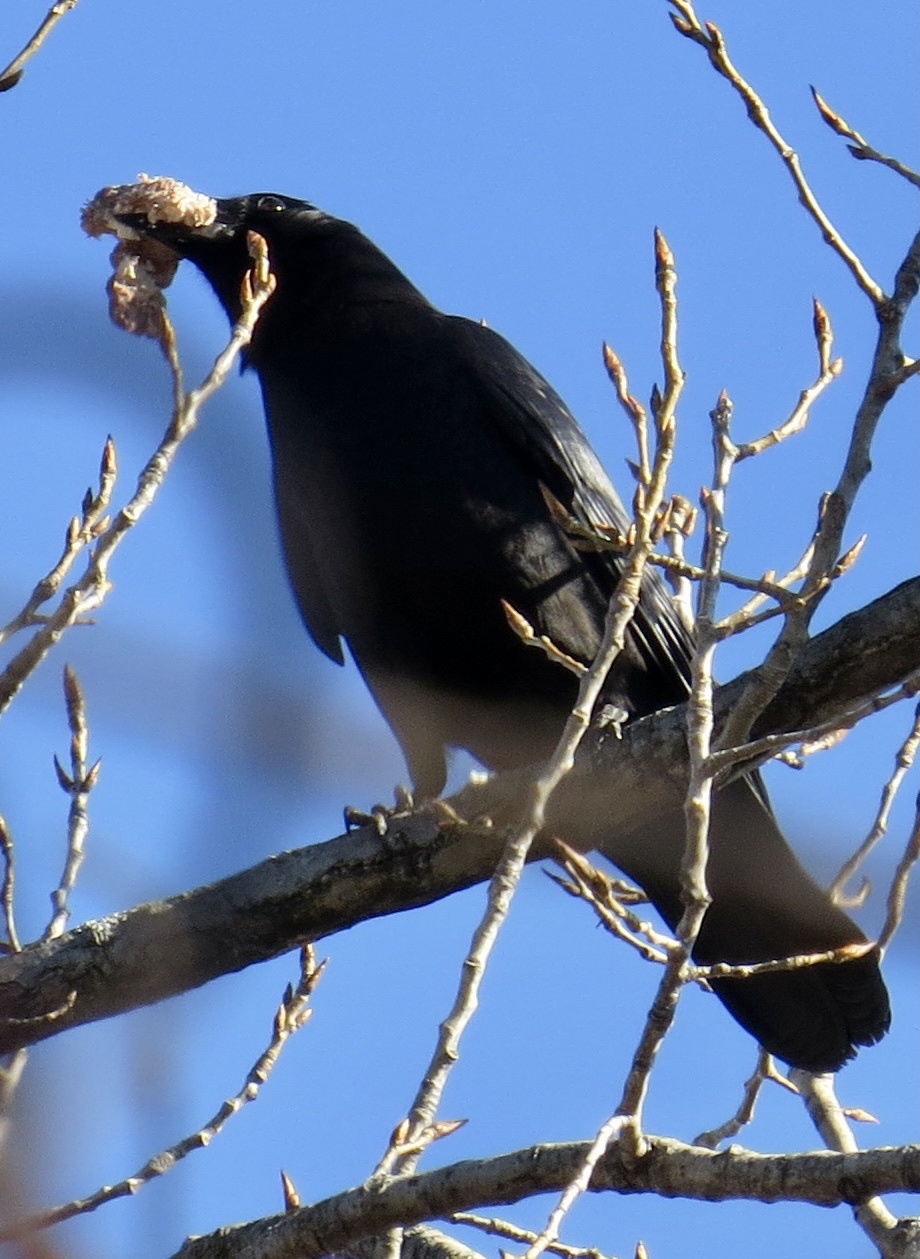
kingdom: Animalia
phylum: Chordata
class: Aves
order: Passeriformes
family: Corvidae
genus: Corvus
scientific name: Corvus ossifragus
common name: Fish crow
